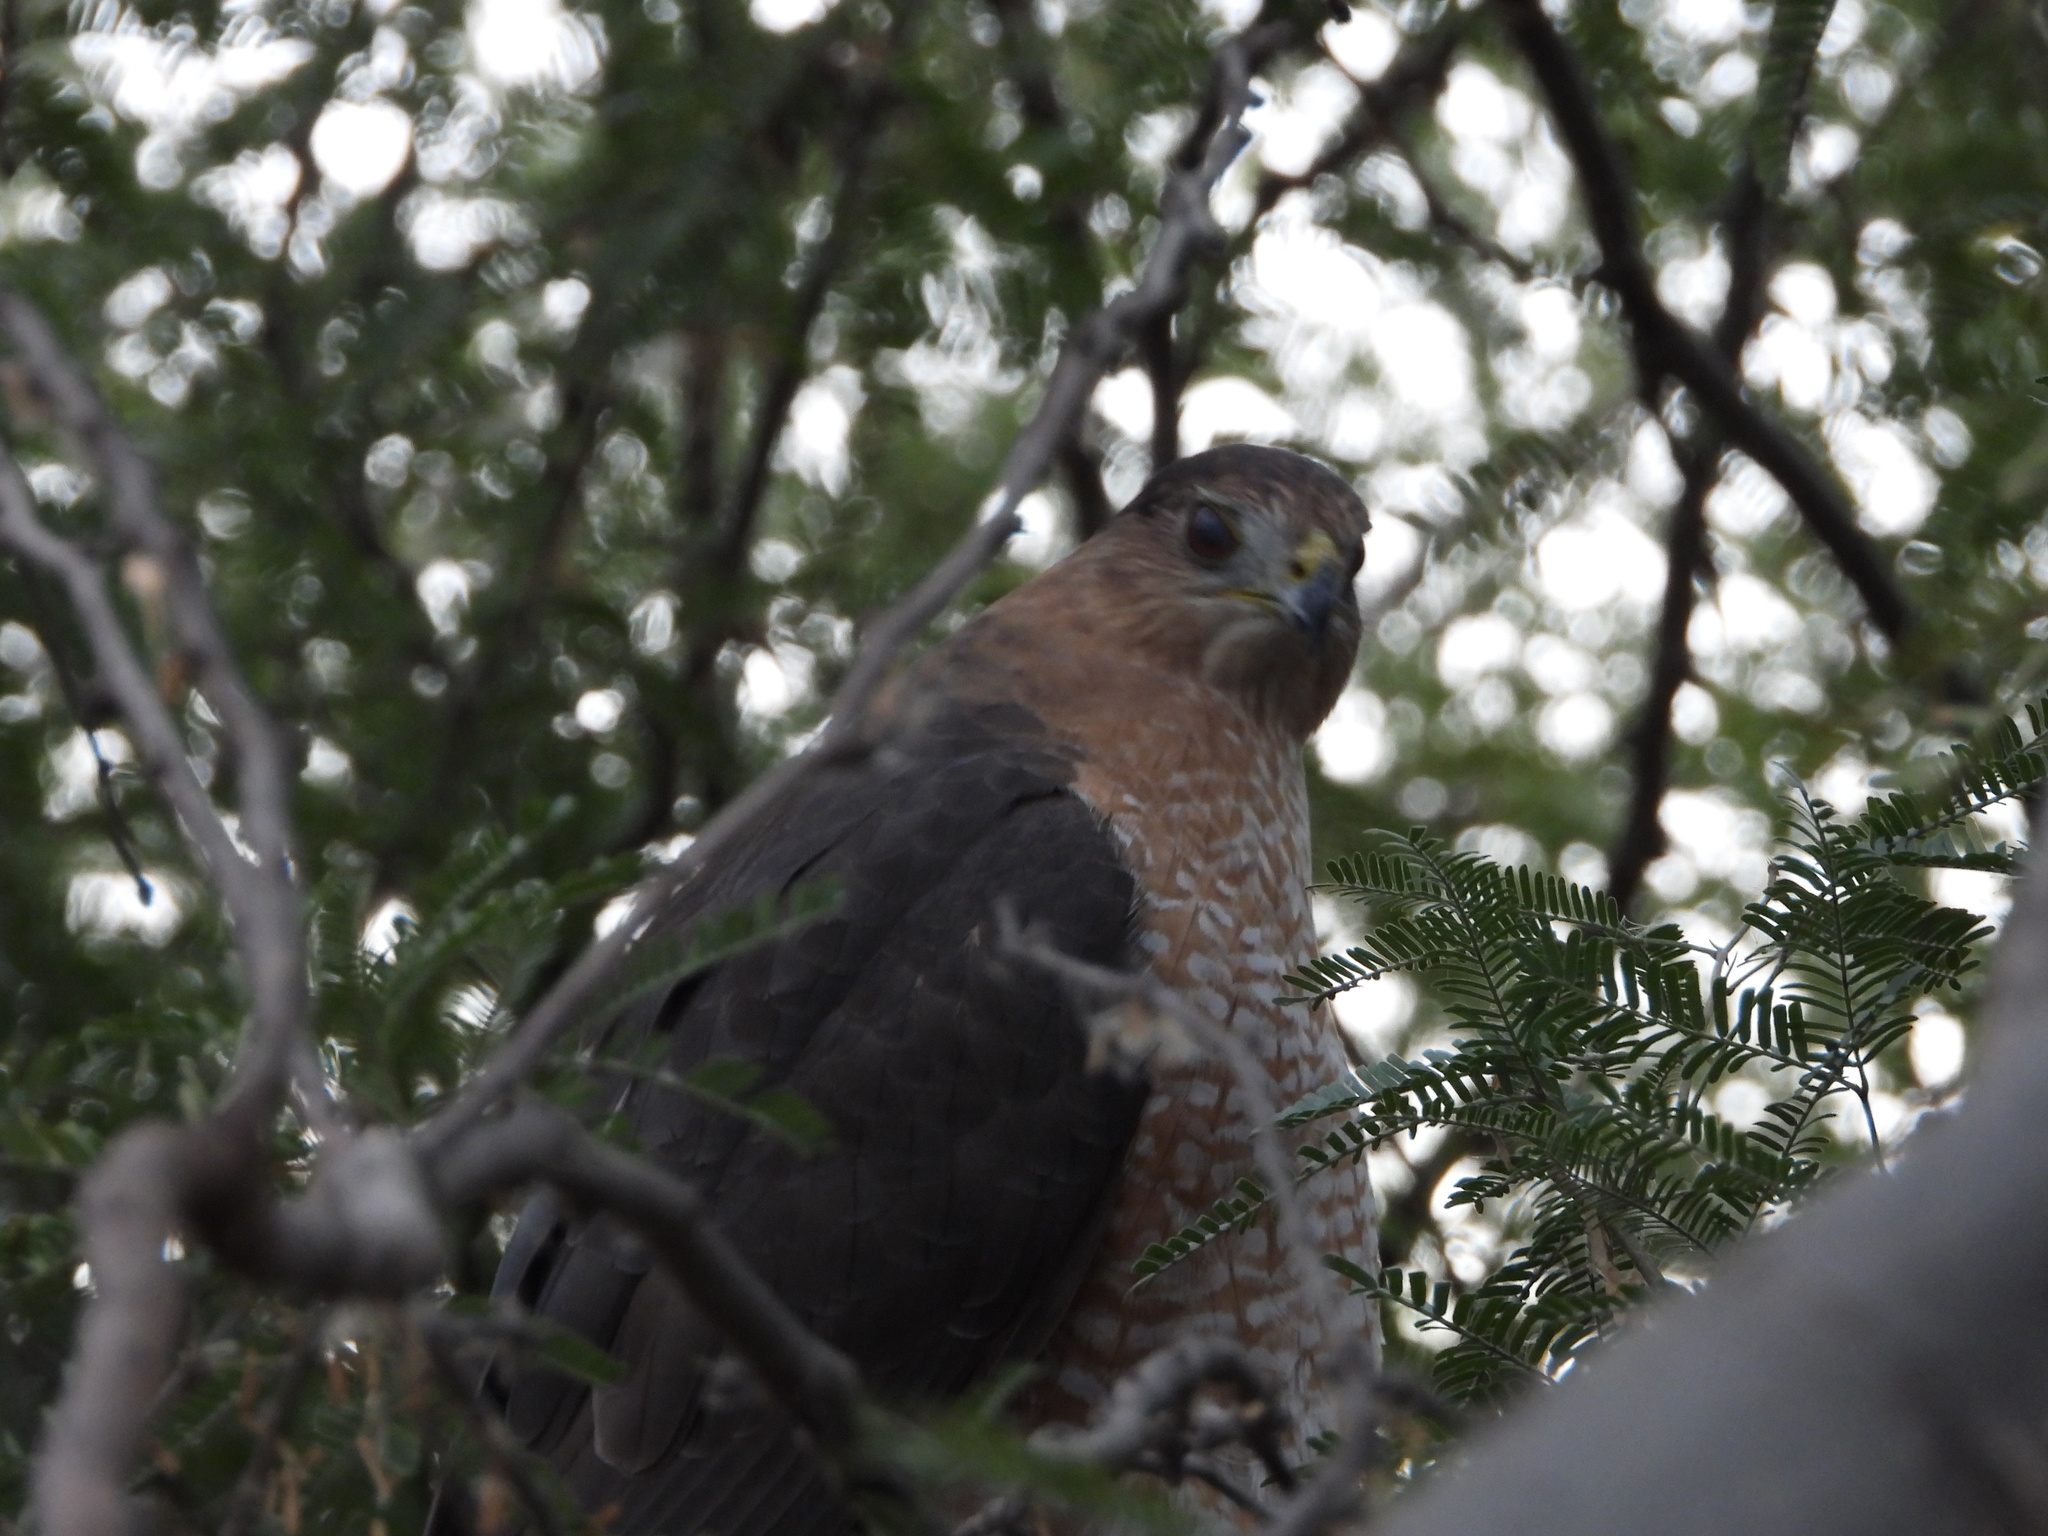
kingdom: Animalia
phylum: Chordata
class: Aves
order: Accipitriformes
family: Accipitridae
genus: Accipiter
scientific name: Accipiter cooperii
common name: Cooper's hawk
